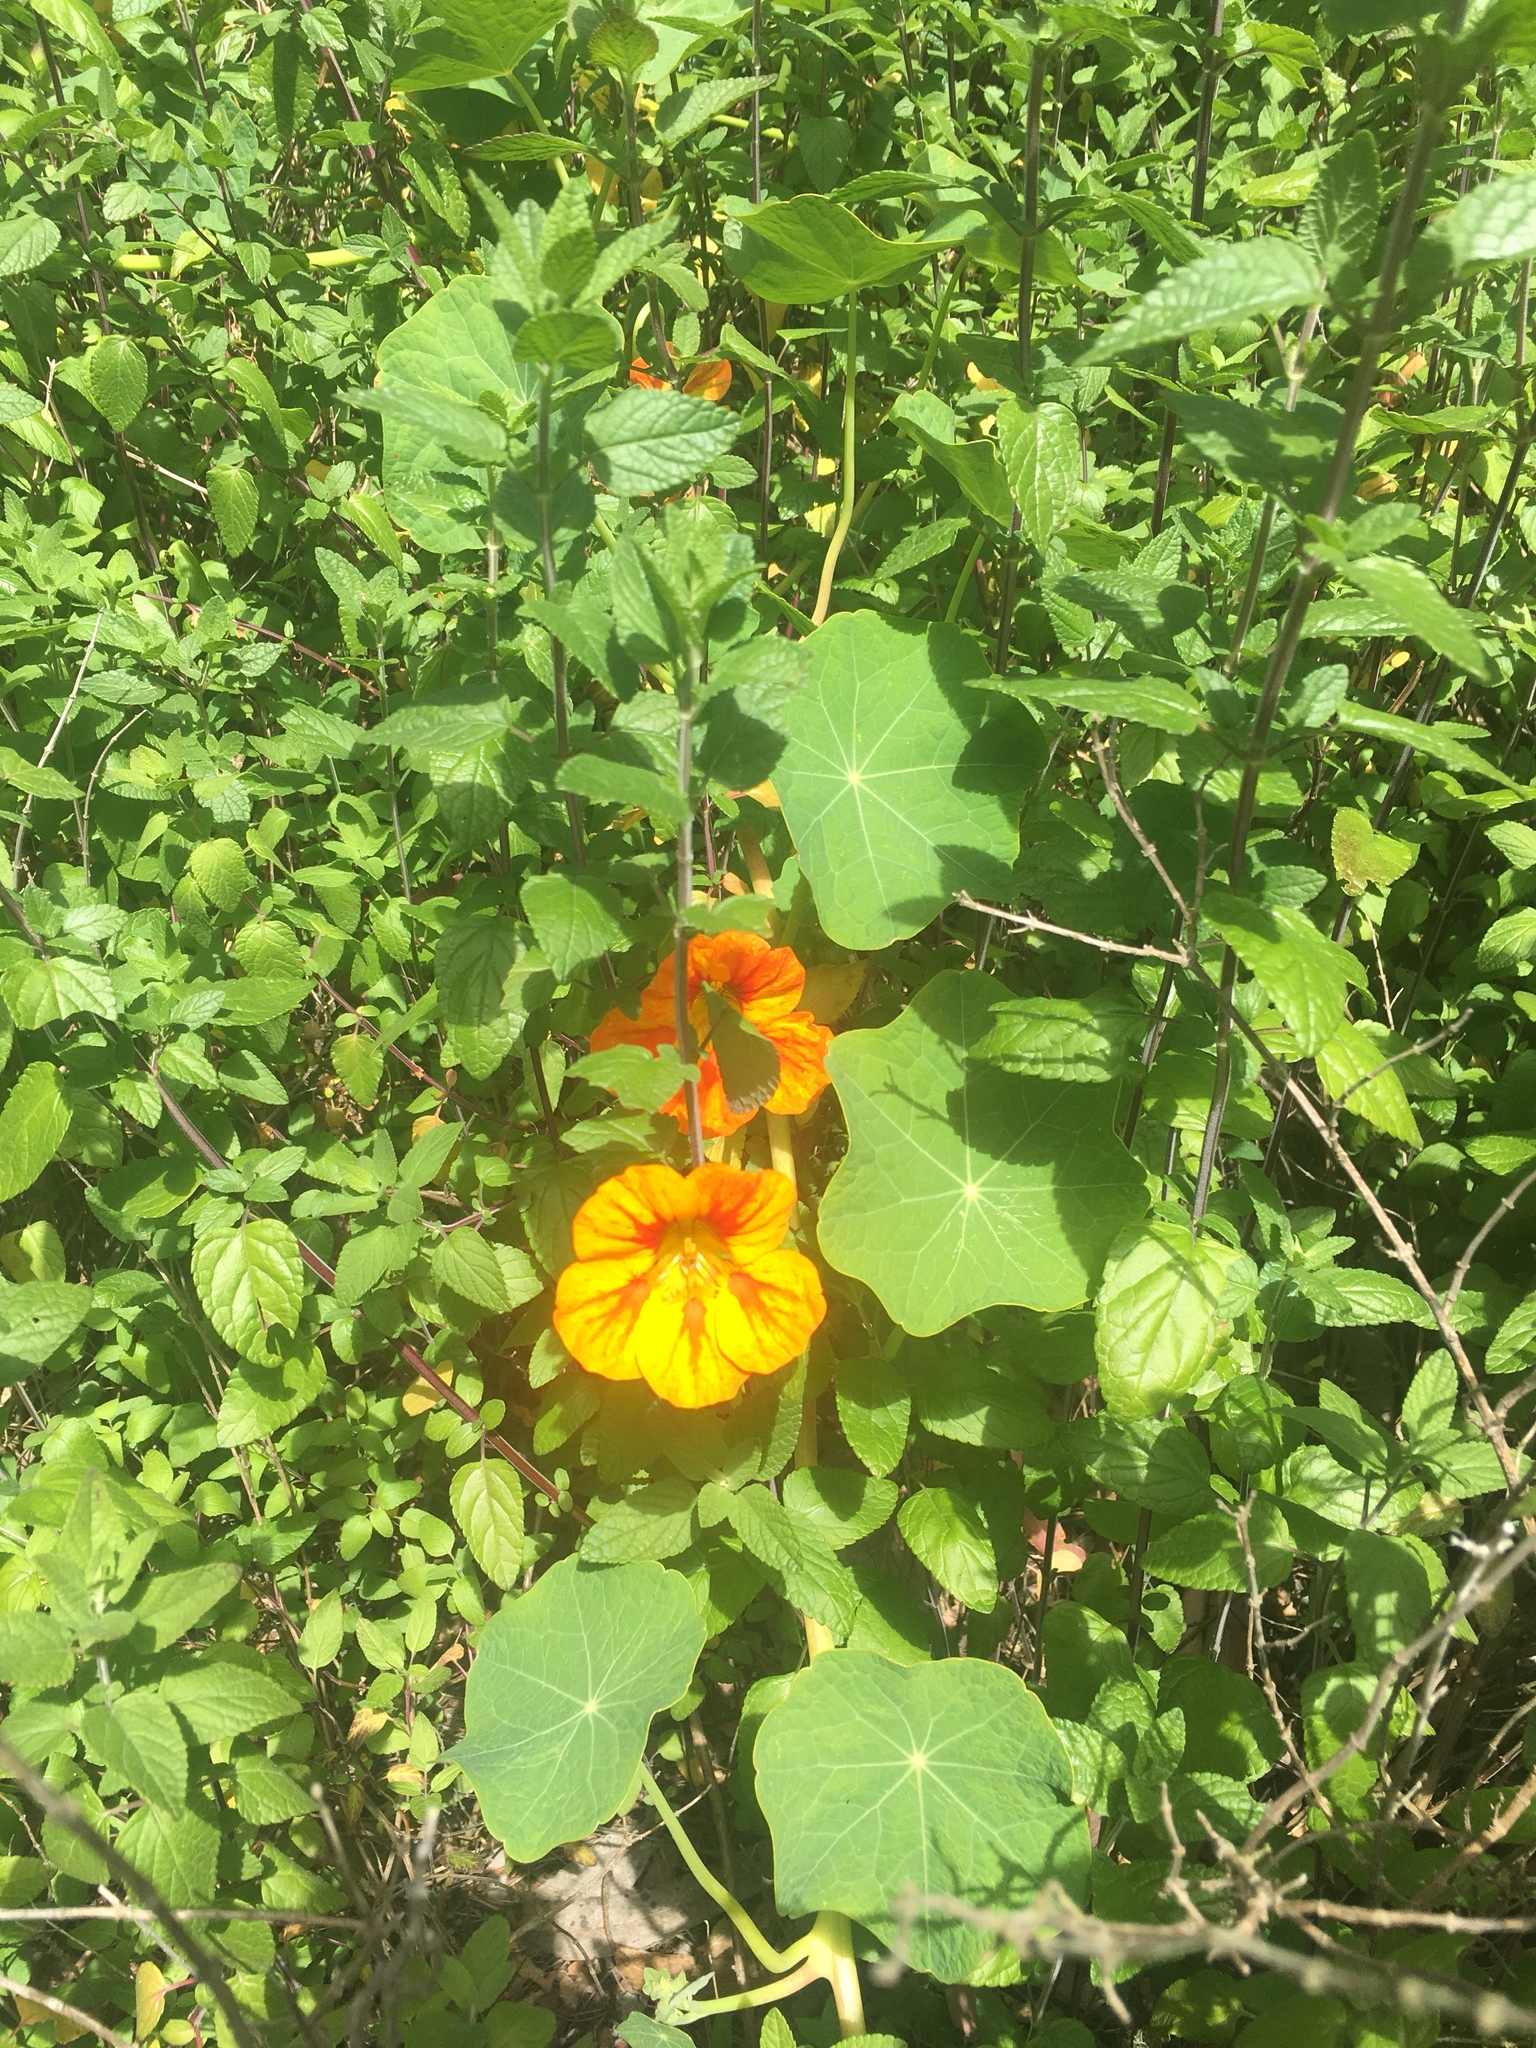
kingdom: Plantae
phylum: Tracheophyta
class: Magnoliopsida
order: Brassicales
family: Tropaeolaceae
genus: Tropaeolum
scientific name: Tropaeolum majus
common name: Nasturtium
